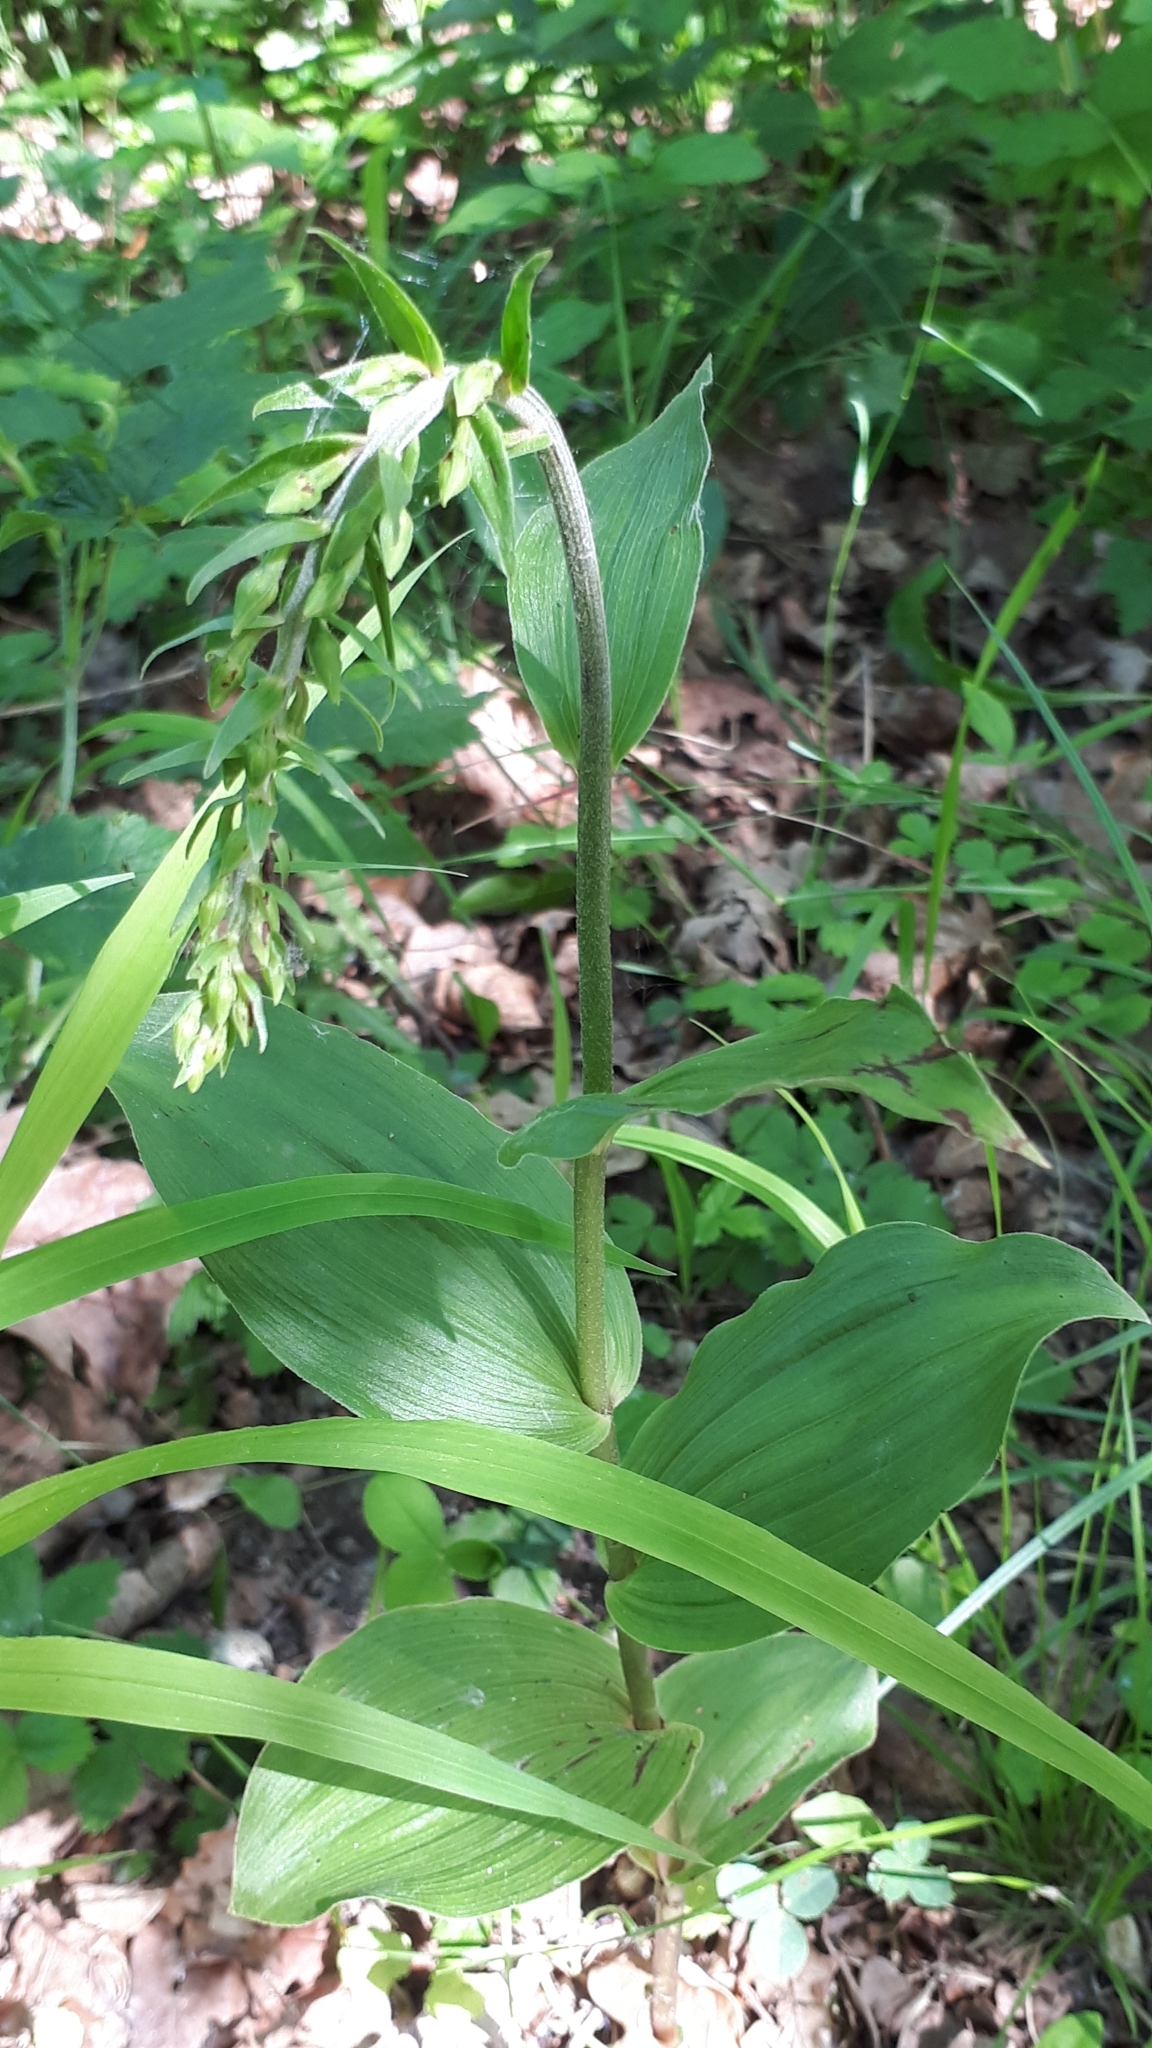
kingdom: Plantae
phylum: Tracheophyta
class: Liliopsida
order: Asparagales
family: Orchidaceae
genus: Epipactis
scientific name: Epipactis helleborine
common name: Broad-leaved helleborine
